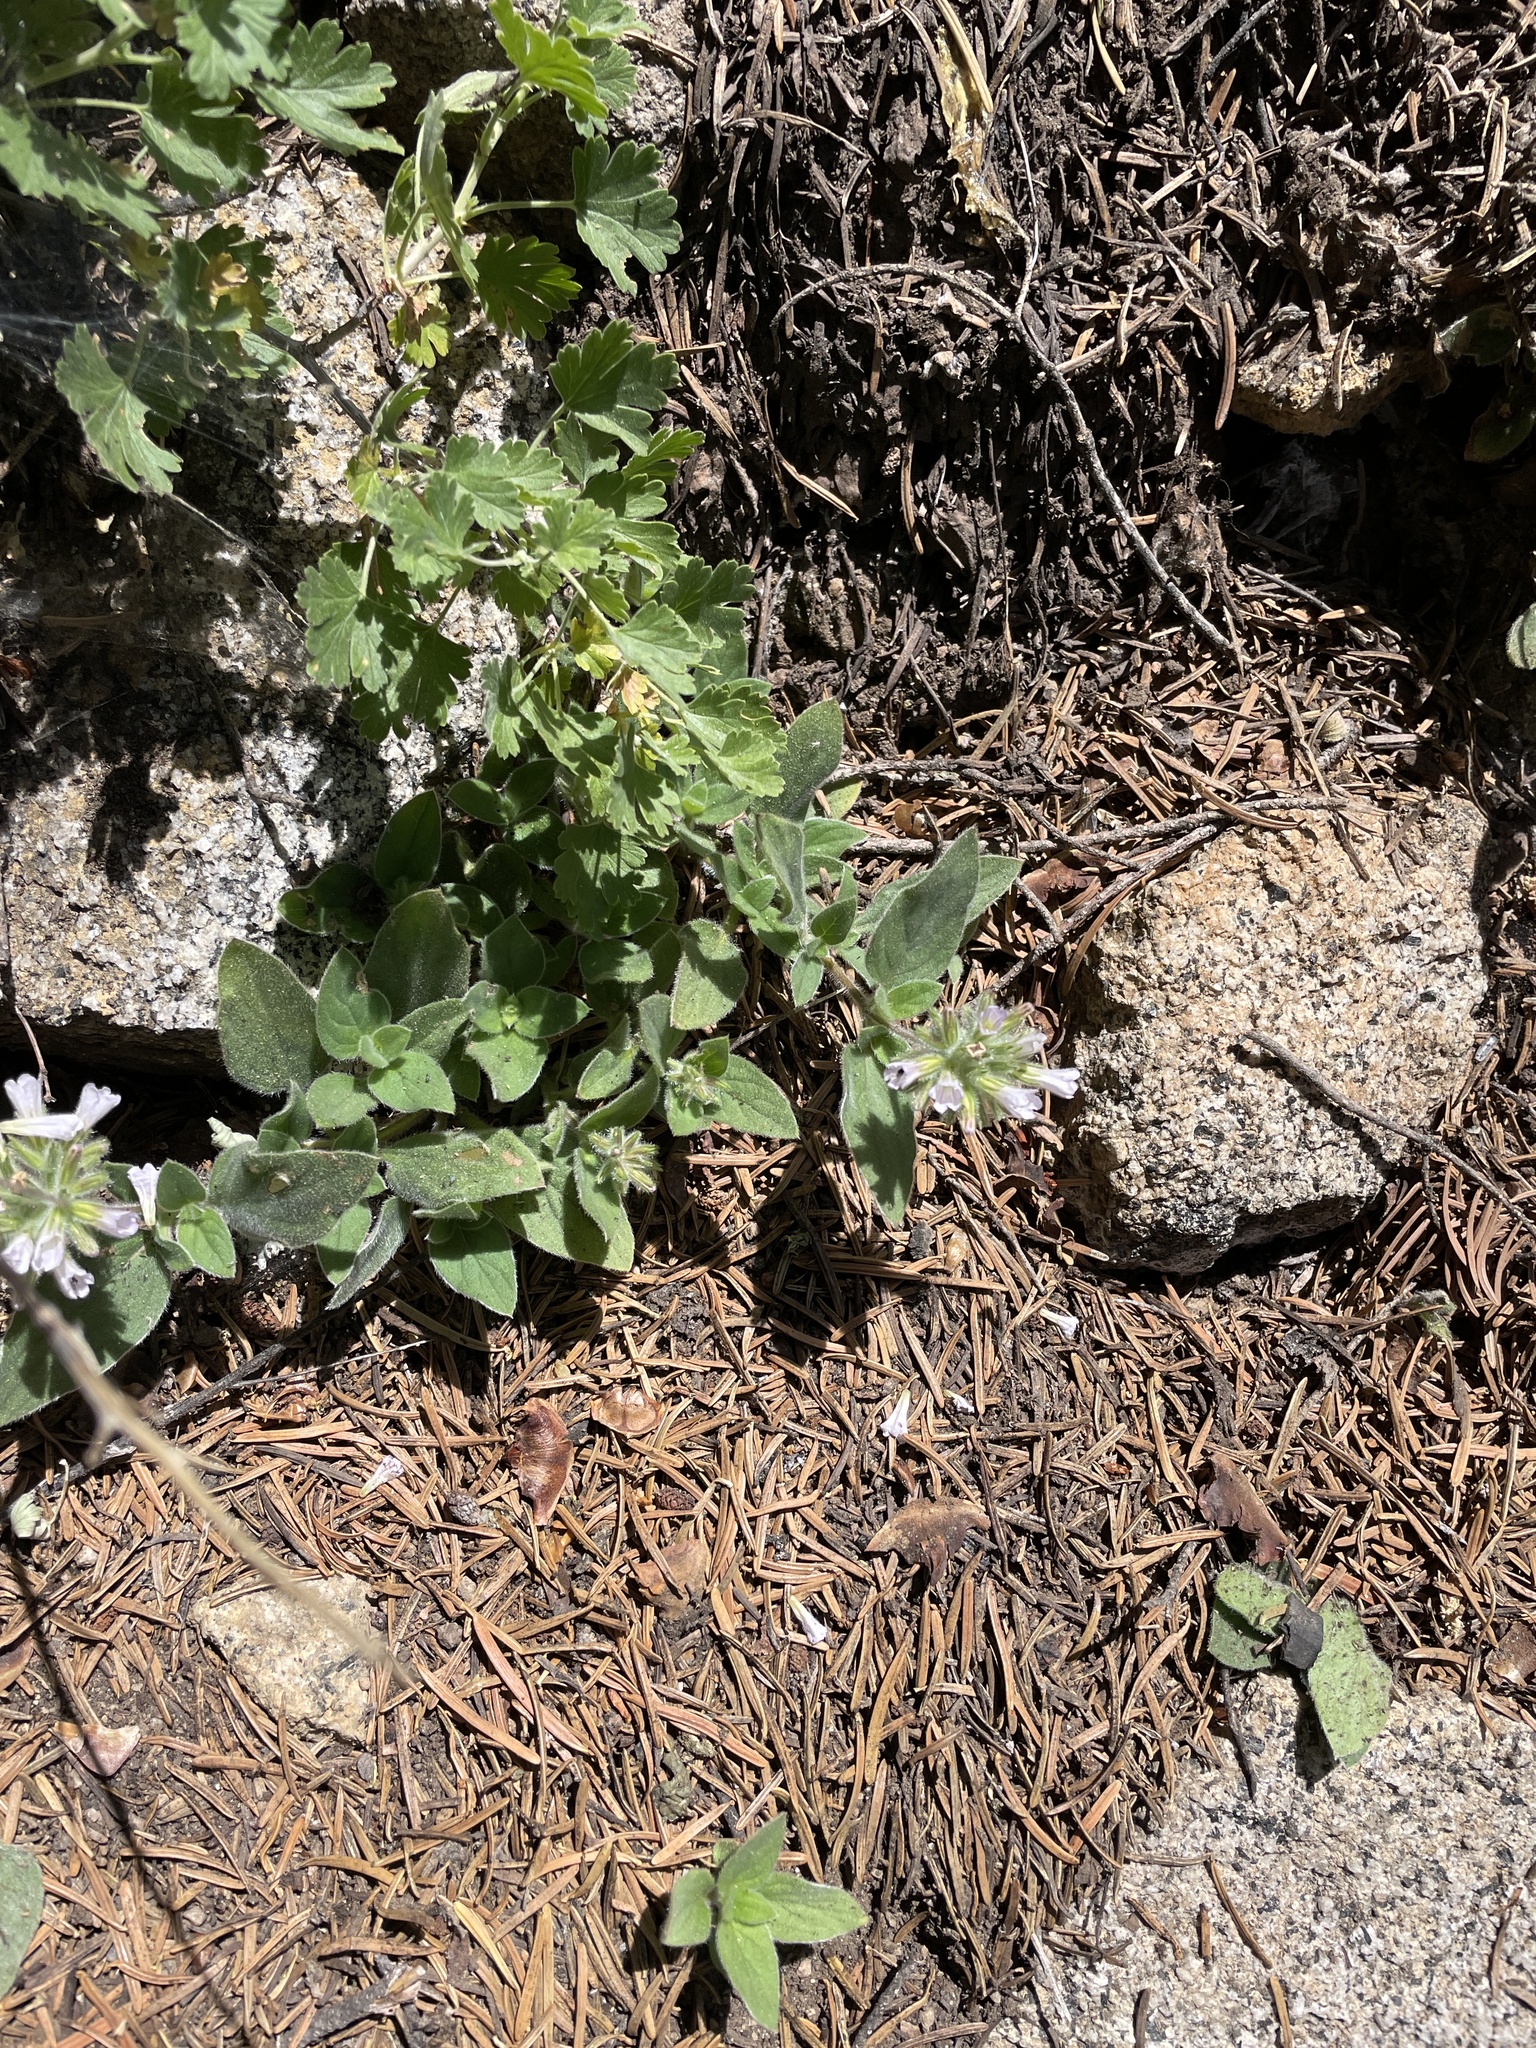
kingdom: Plantae
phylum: Tracheophyta
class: Magnoliopsida
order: Boraginales
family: Hydrophyllaceae
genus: Draperia
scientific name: Draperia systyla
